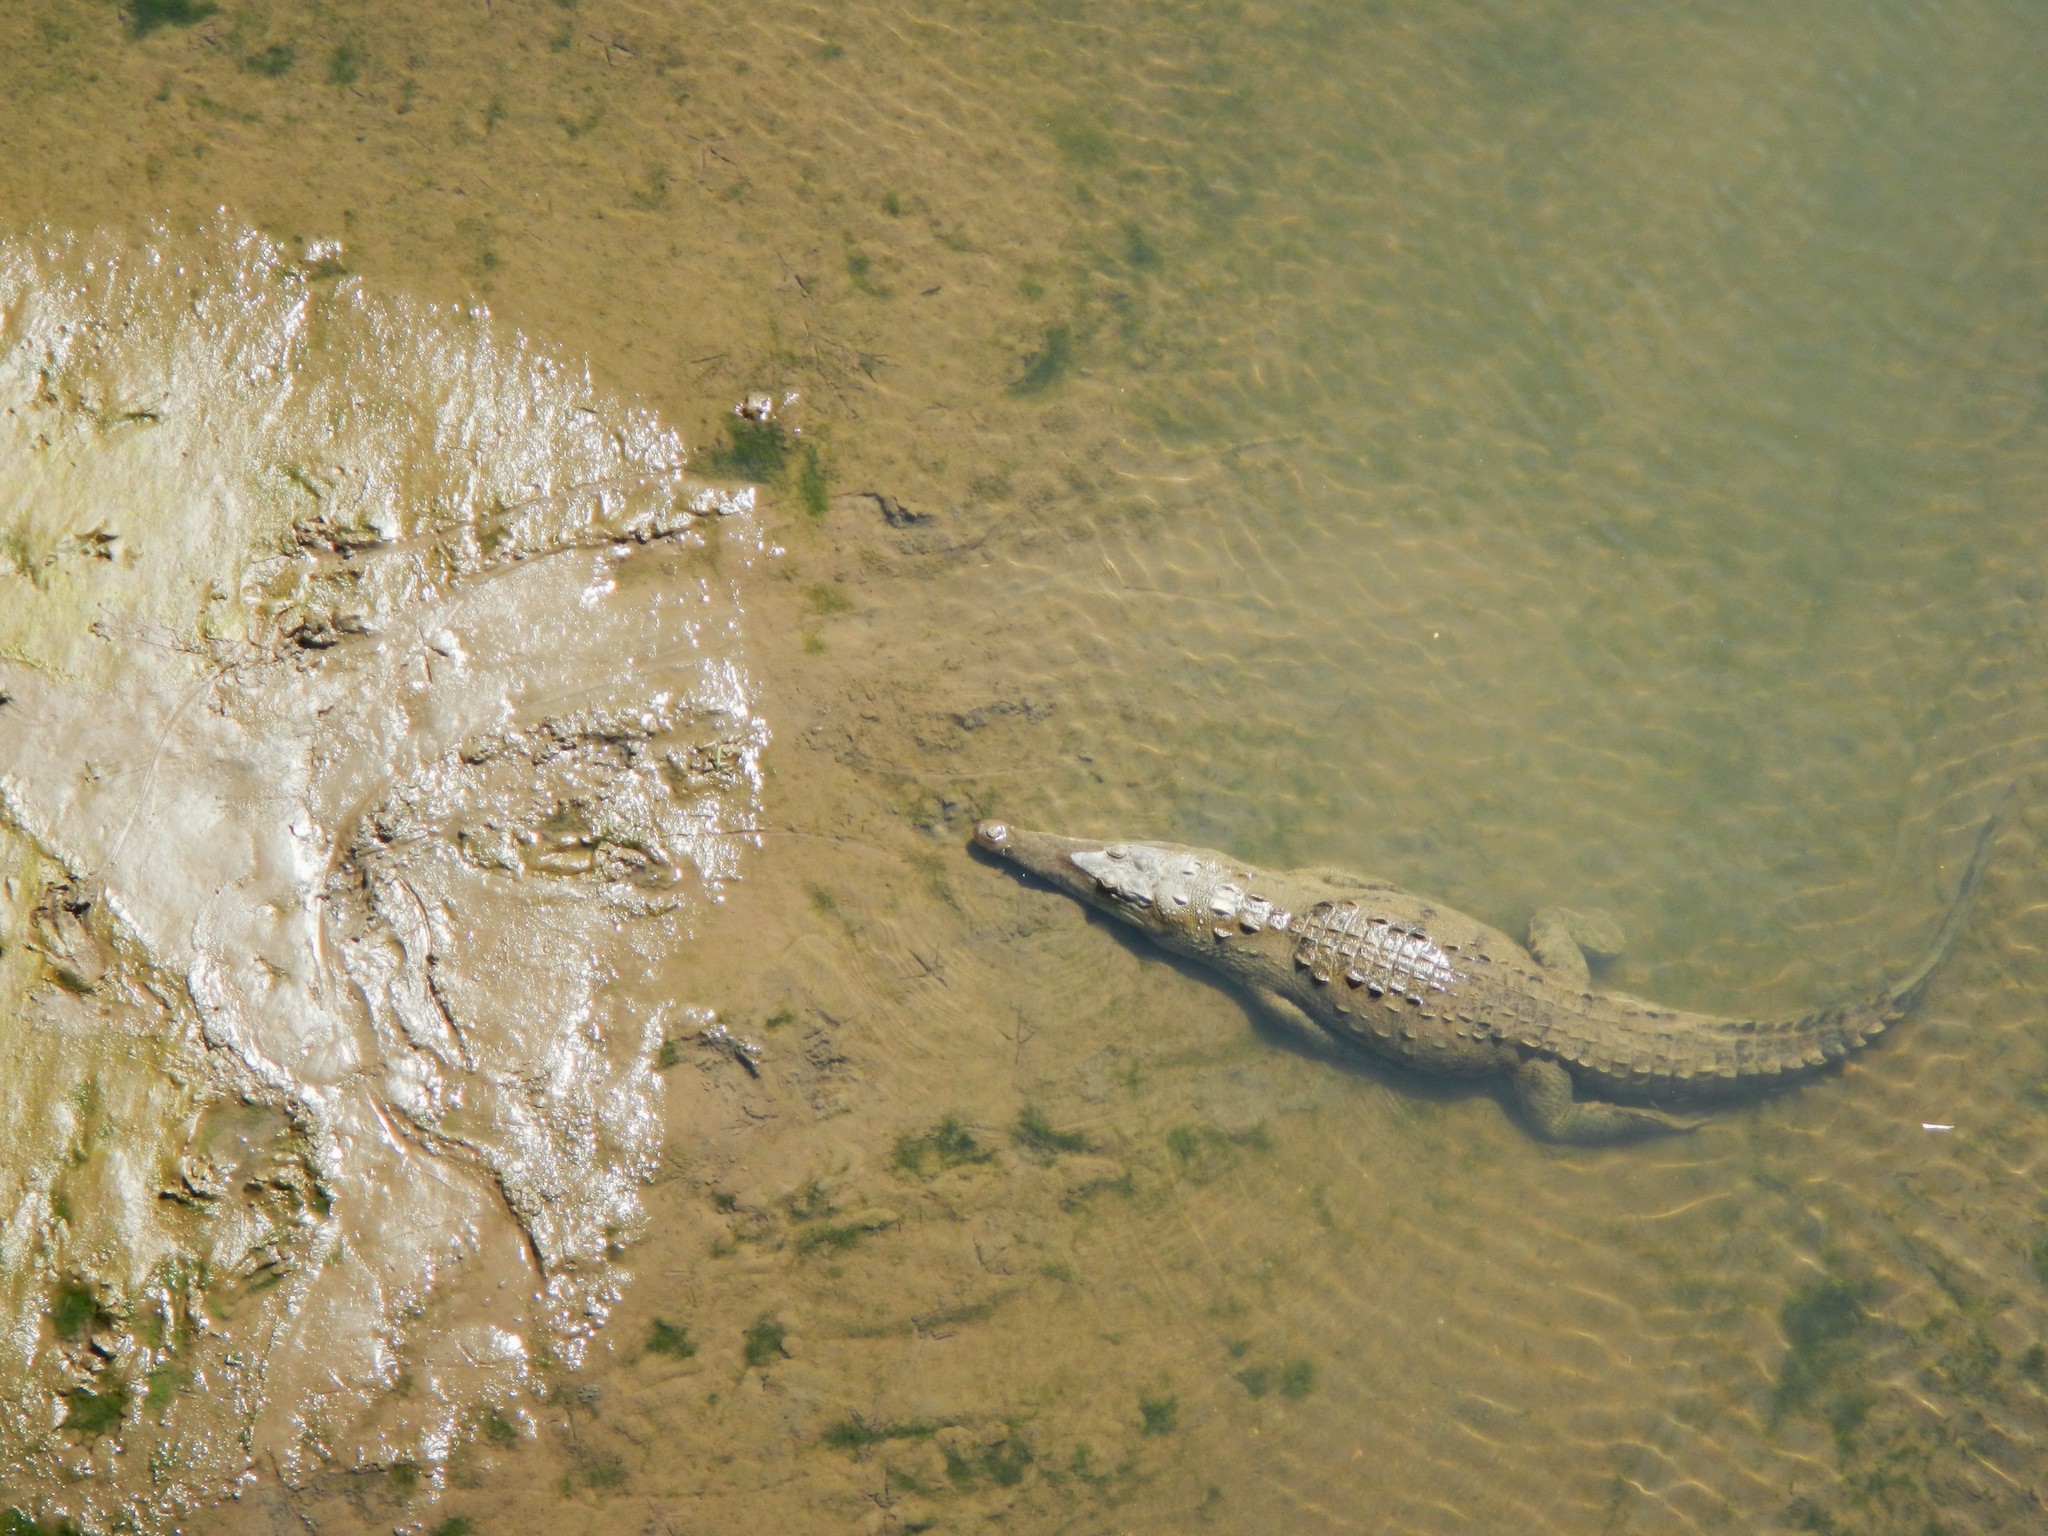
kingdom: Animalia
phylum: Chordata
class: Crocodylia
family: Crocodylidae
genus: Crocodylus
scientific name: Crocodylus acutus
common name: American crocodile
